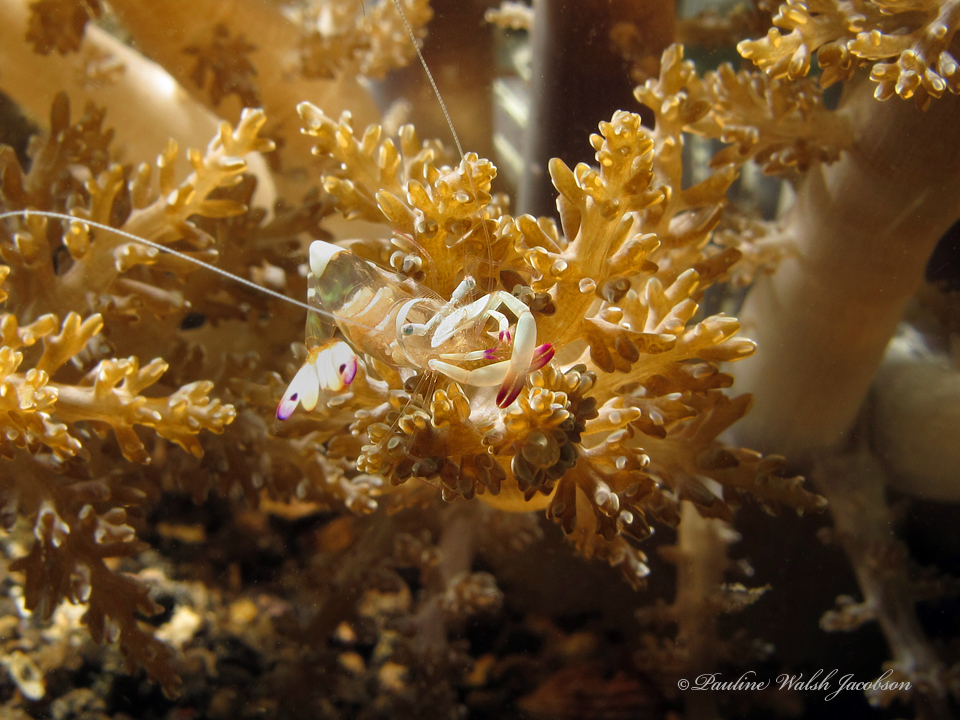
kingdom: Animalia
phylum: Arthropoda
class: Malacostraca
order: Decapoda
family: Palaemonidae
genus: Ancylomenes
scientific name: Ancylomenes magnificus
